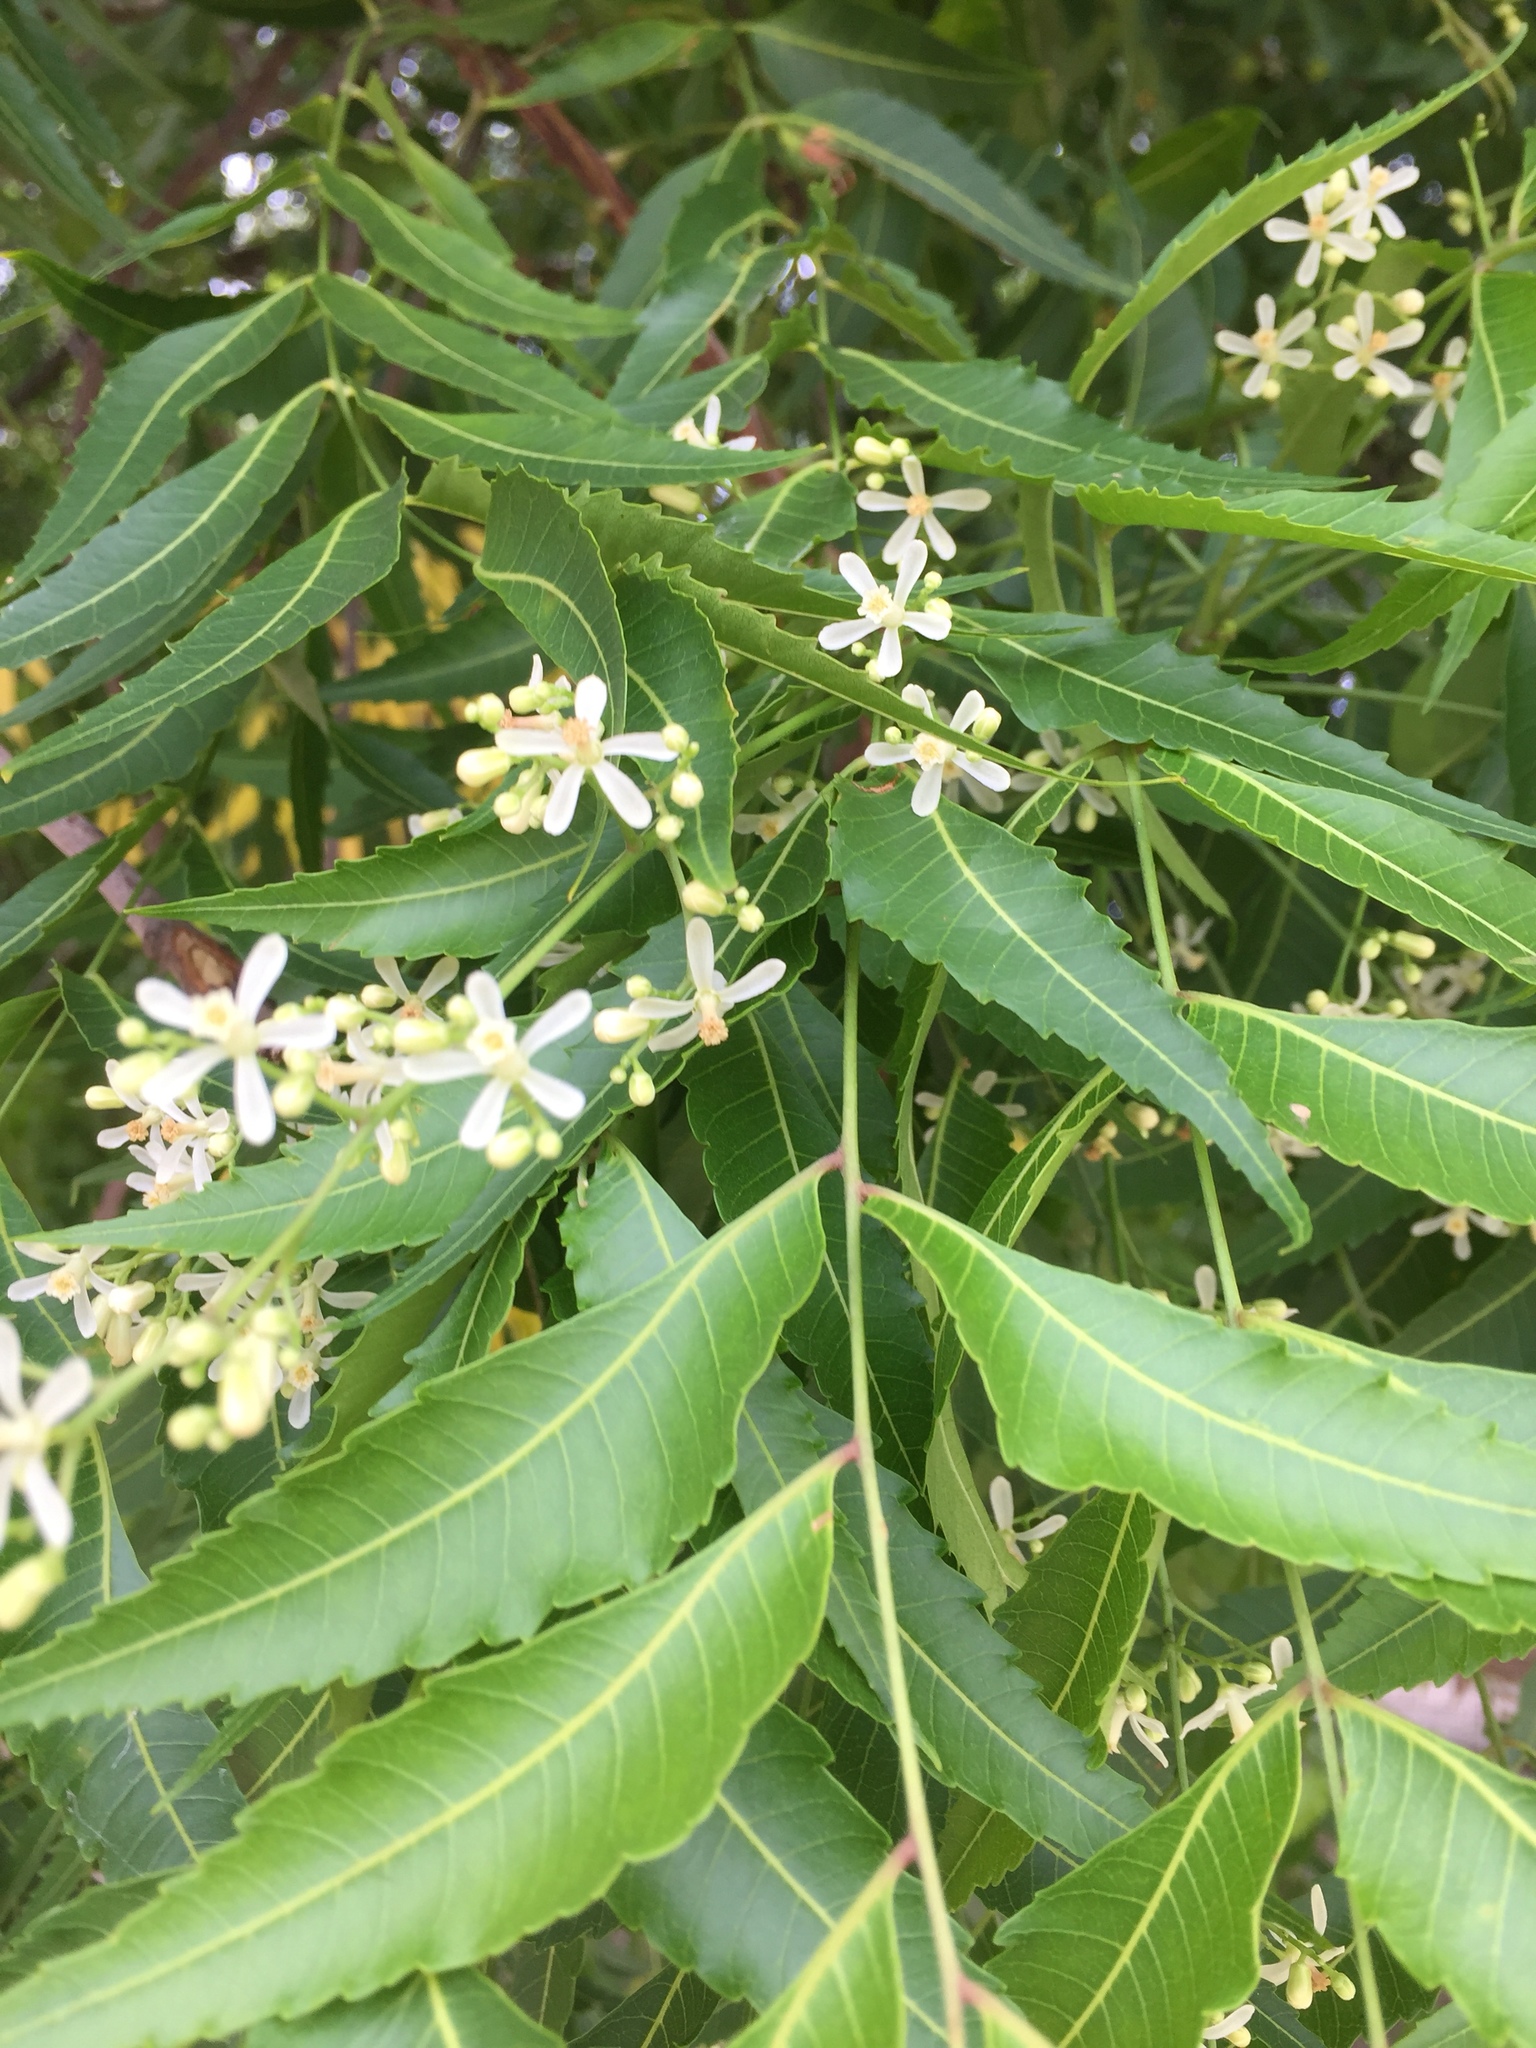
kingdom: Plantae
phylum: Tracheophyta
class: Magnoliopsida
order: Sapindales
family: Meliaceae
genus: Melia
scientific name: Melia azedarach
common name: Chinaberrytree
